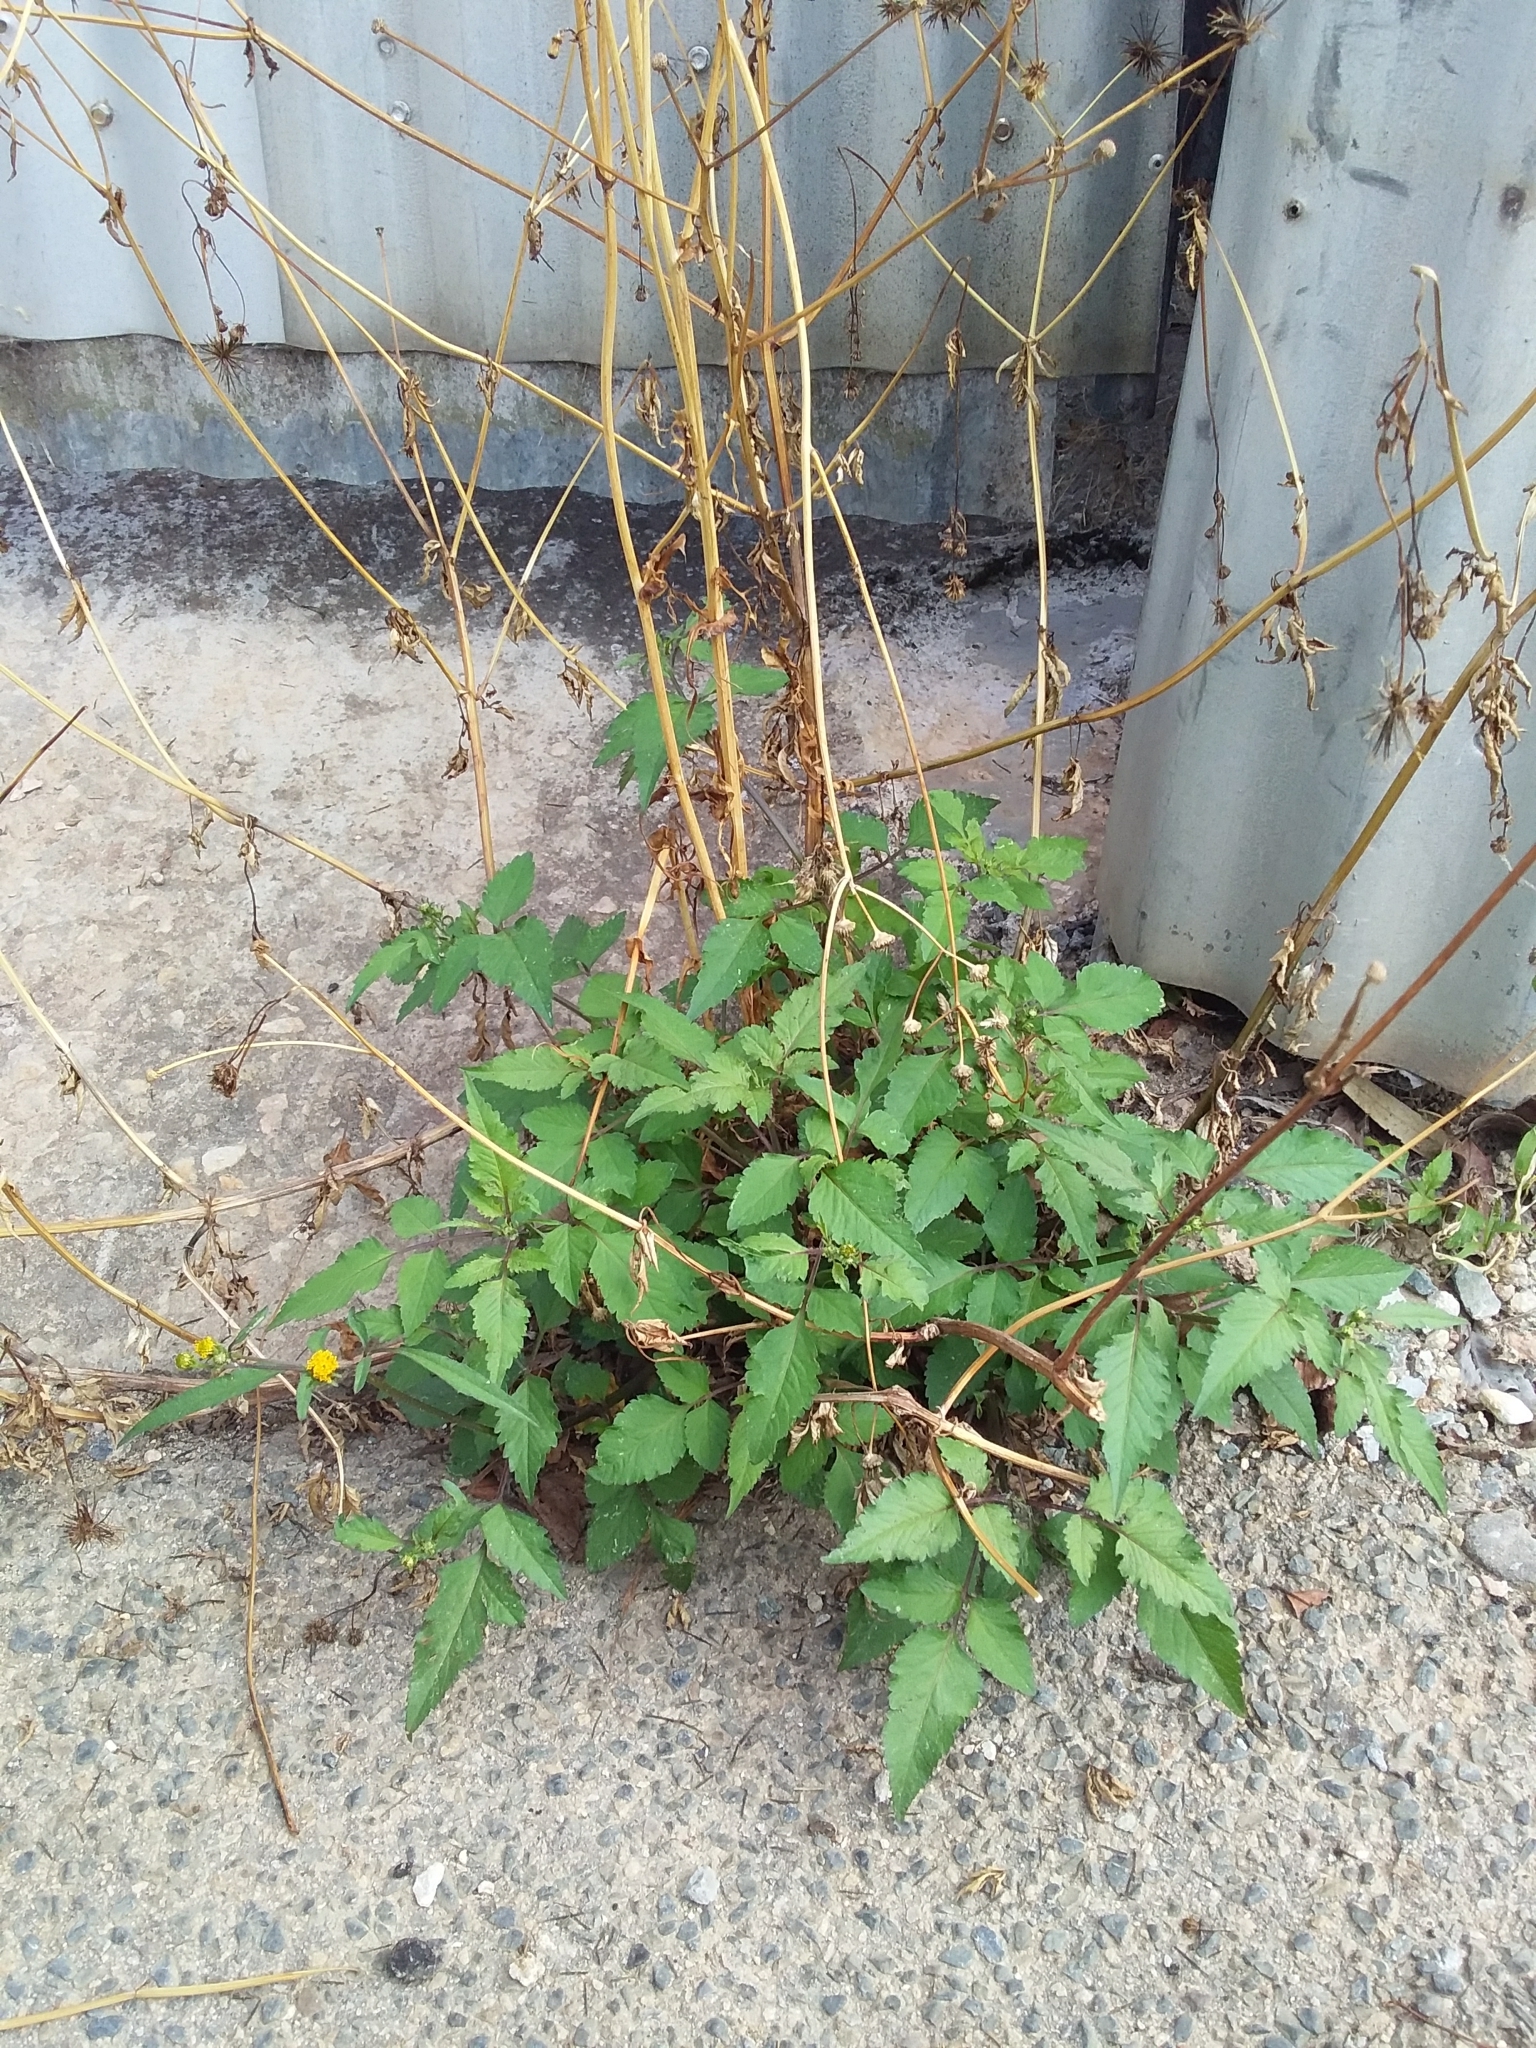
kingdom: Plantae
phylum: Tracheophyta
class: Magnoliopsida
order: Asterales
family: Asteraceae
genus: Bidens
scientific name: Bidens pilosa
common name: Black-jack
